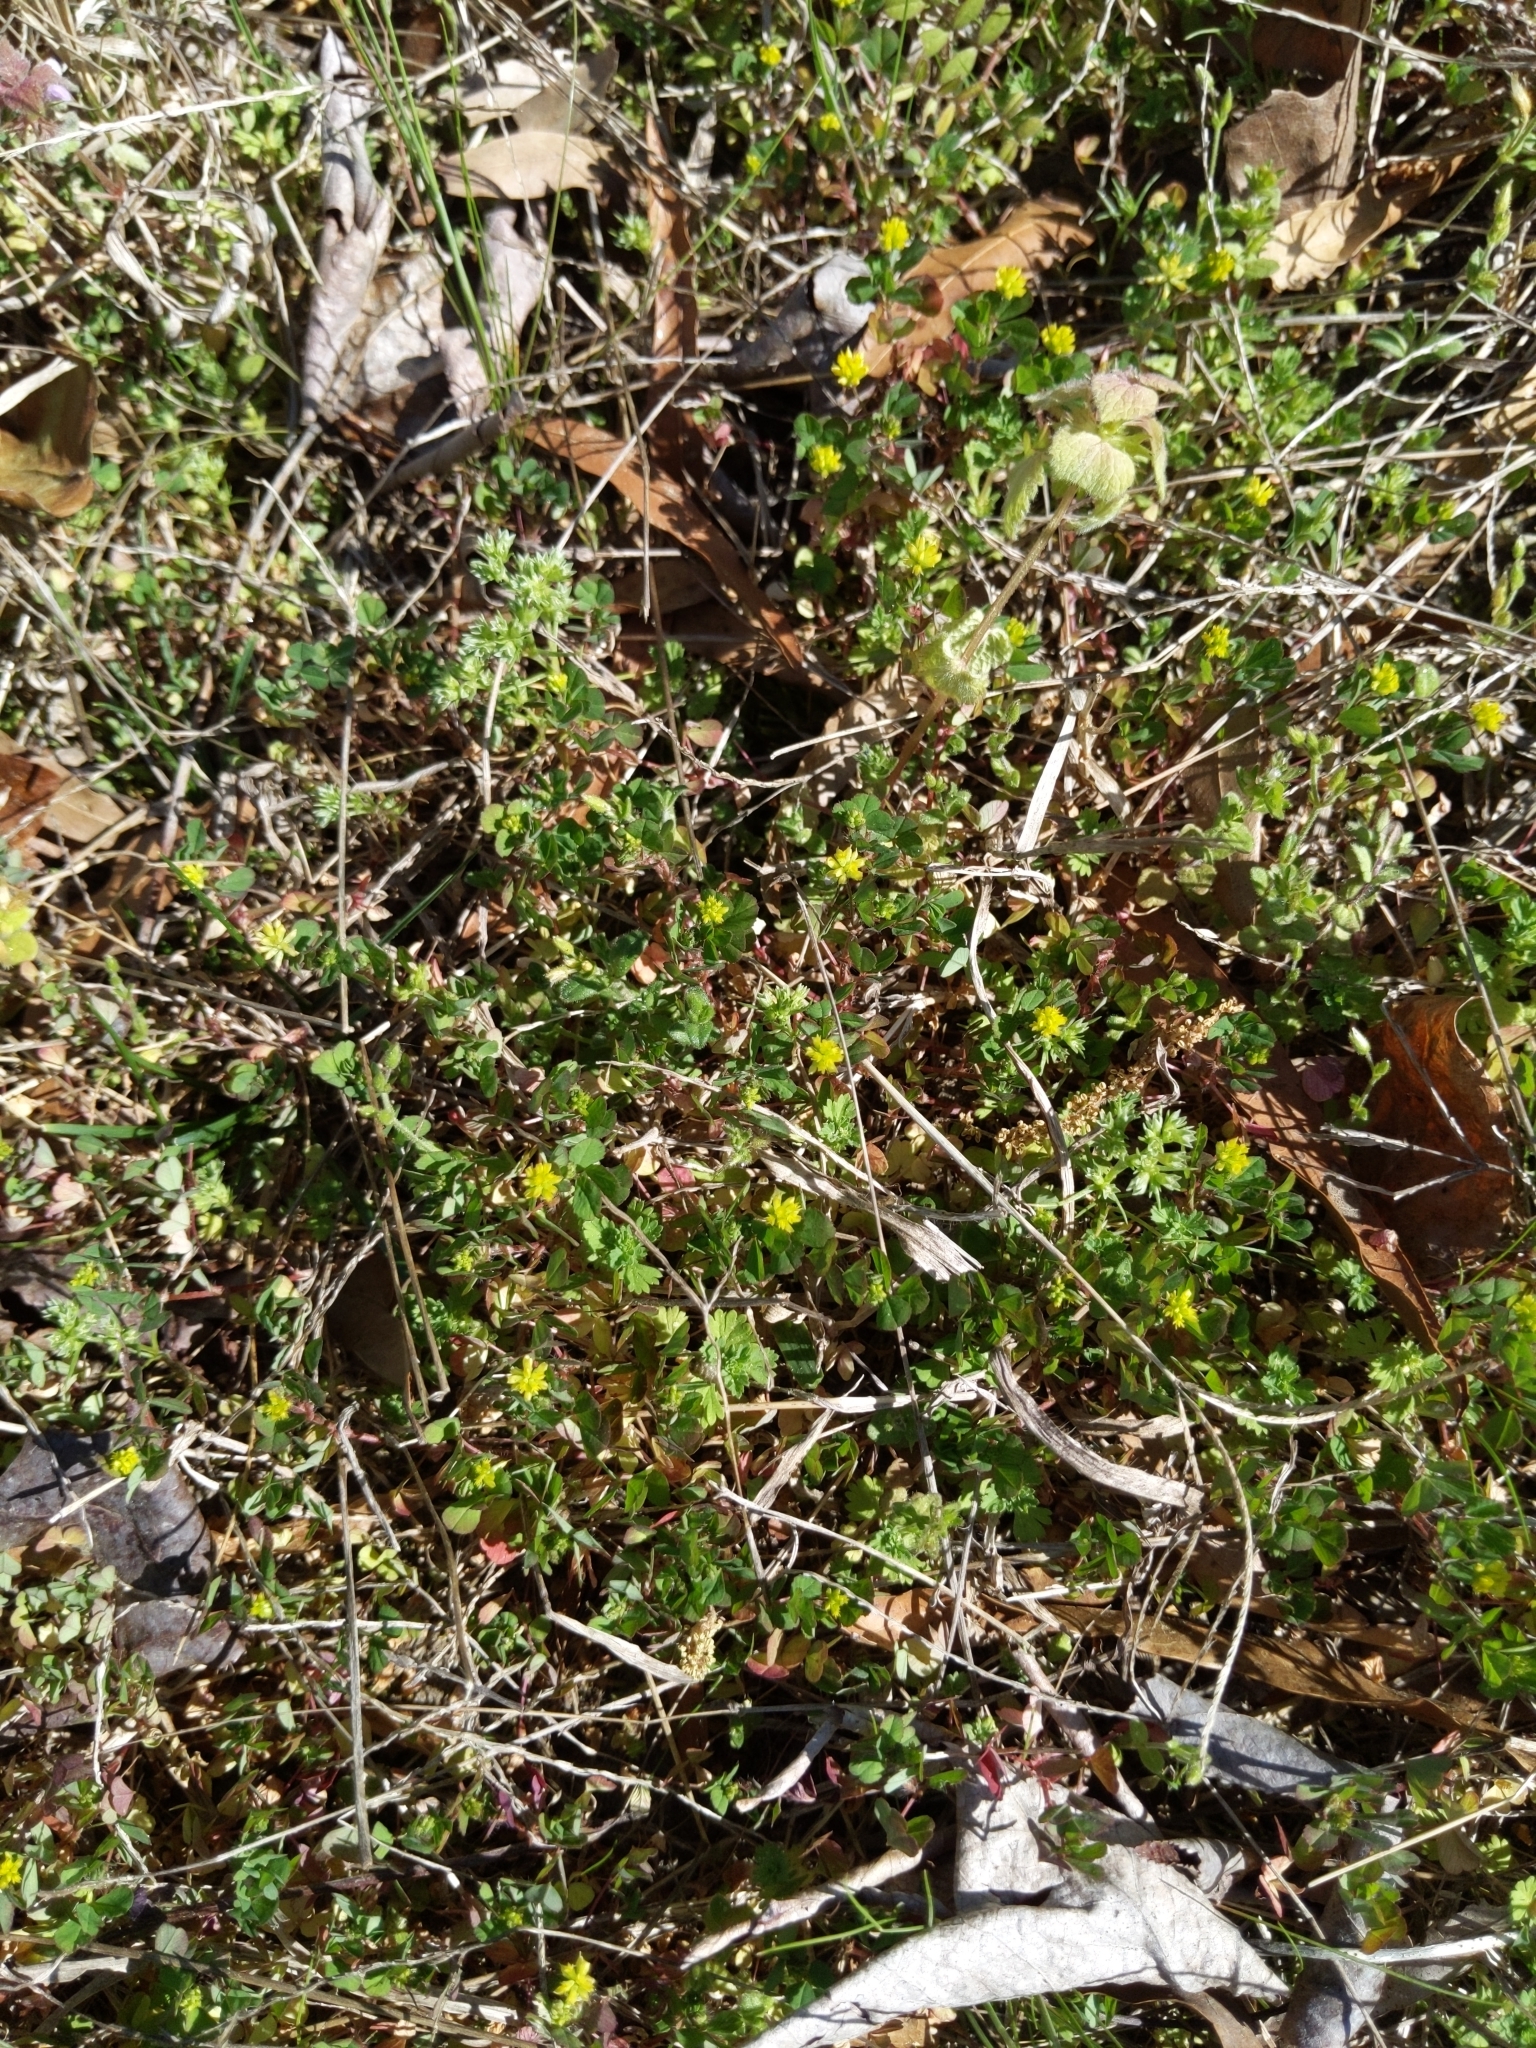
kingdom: Plantae
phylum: Tracheophyta
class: Magnoliopsida
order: Fabales
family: Fabaceae
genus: Trifolium
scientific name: Trifolium dubium
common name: Suckling clover
